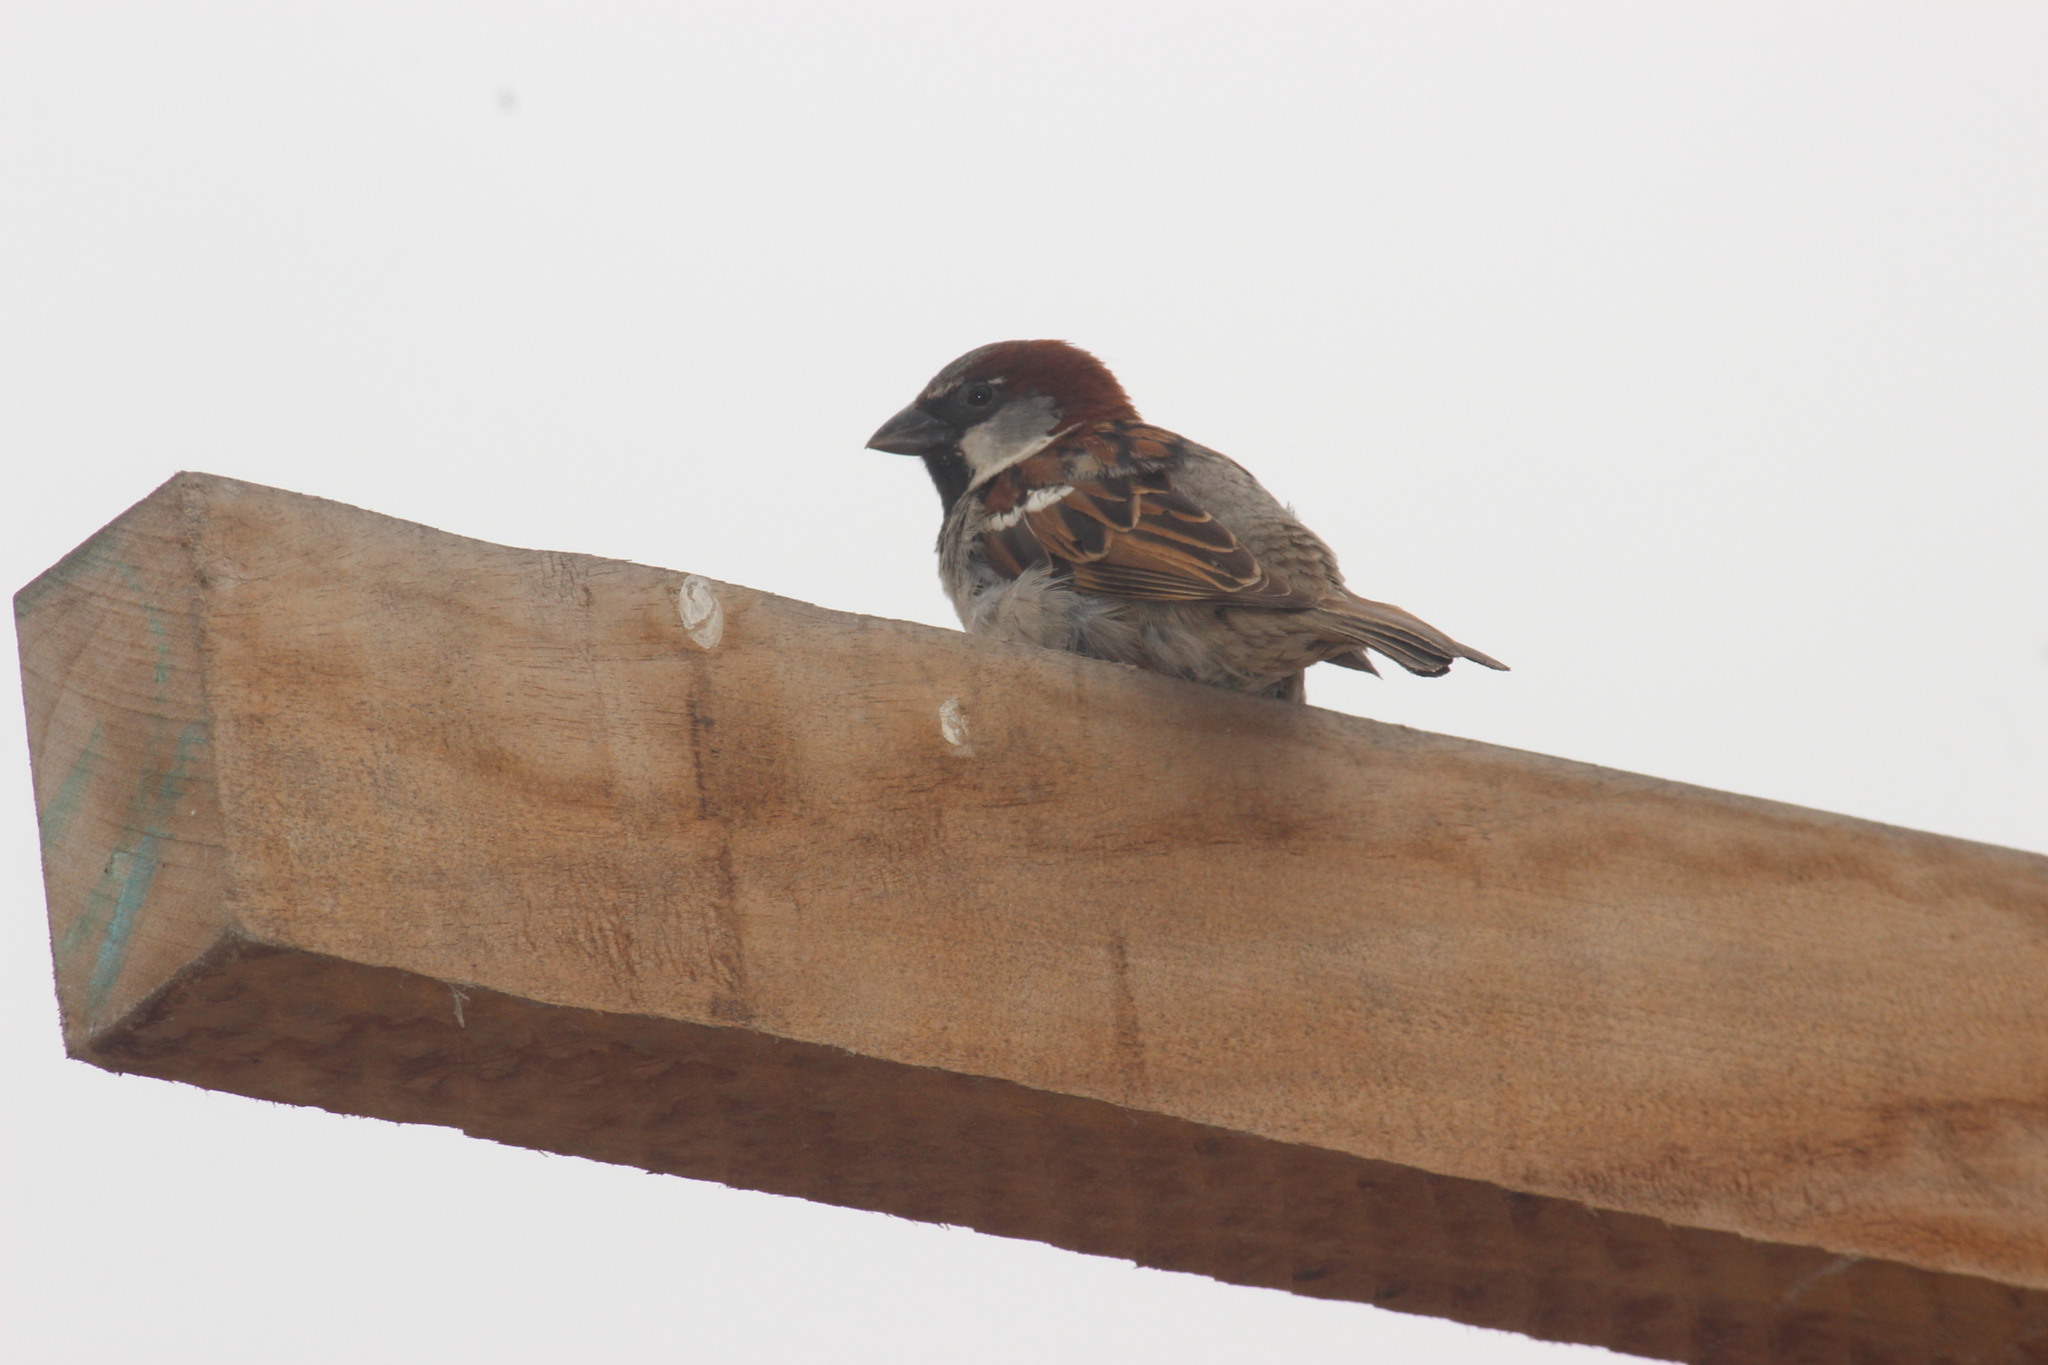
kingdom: Animalia
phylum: Chordata
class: Aves
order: Passeriformes
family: Passeridae
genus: Passer
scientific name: Passer domesticus
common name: House sparrow
